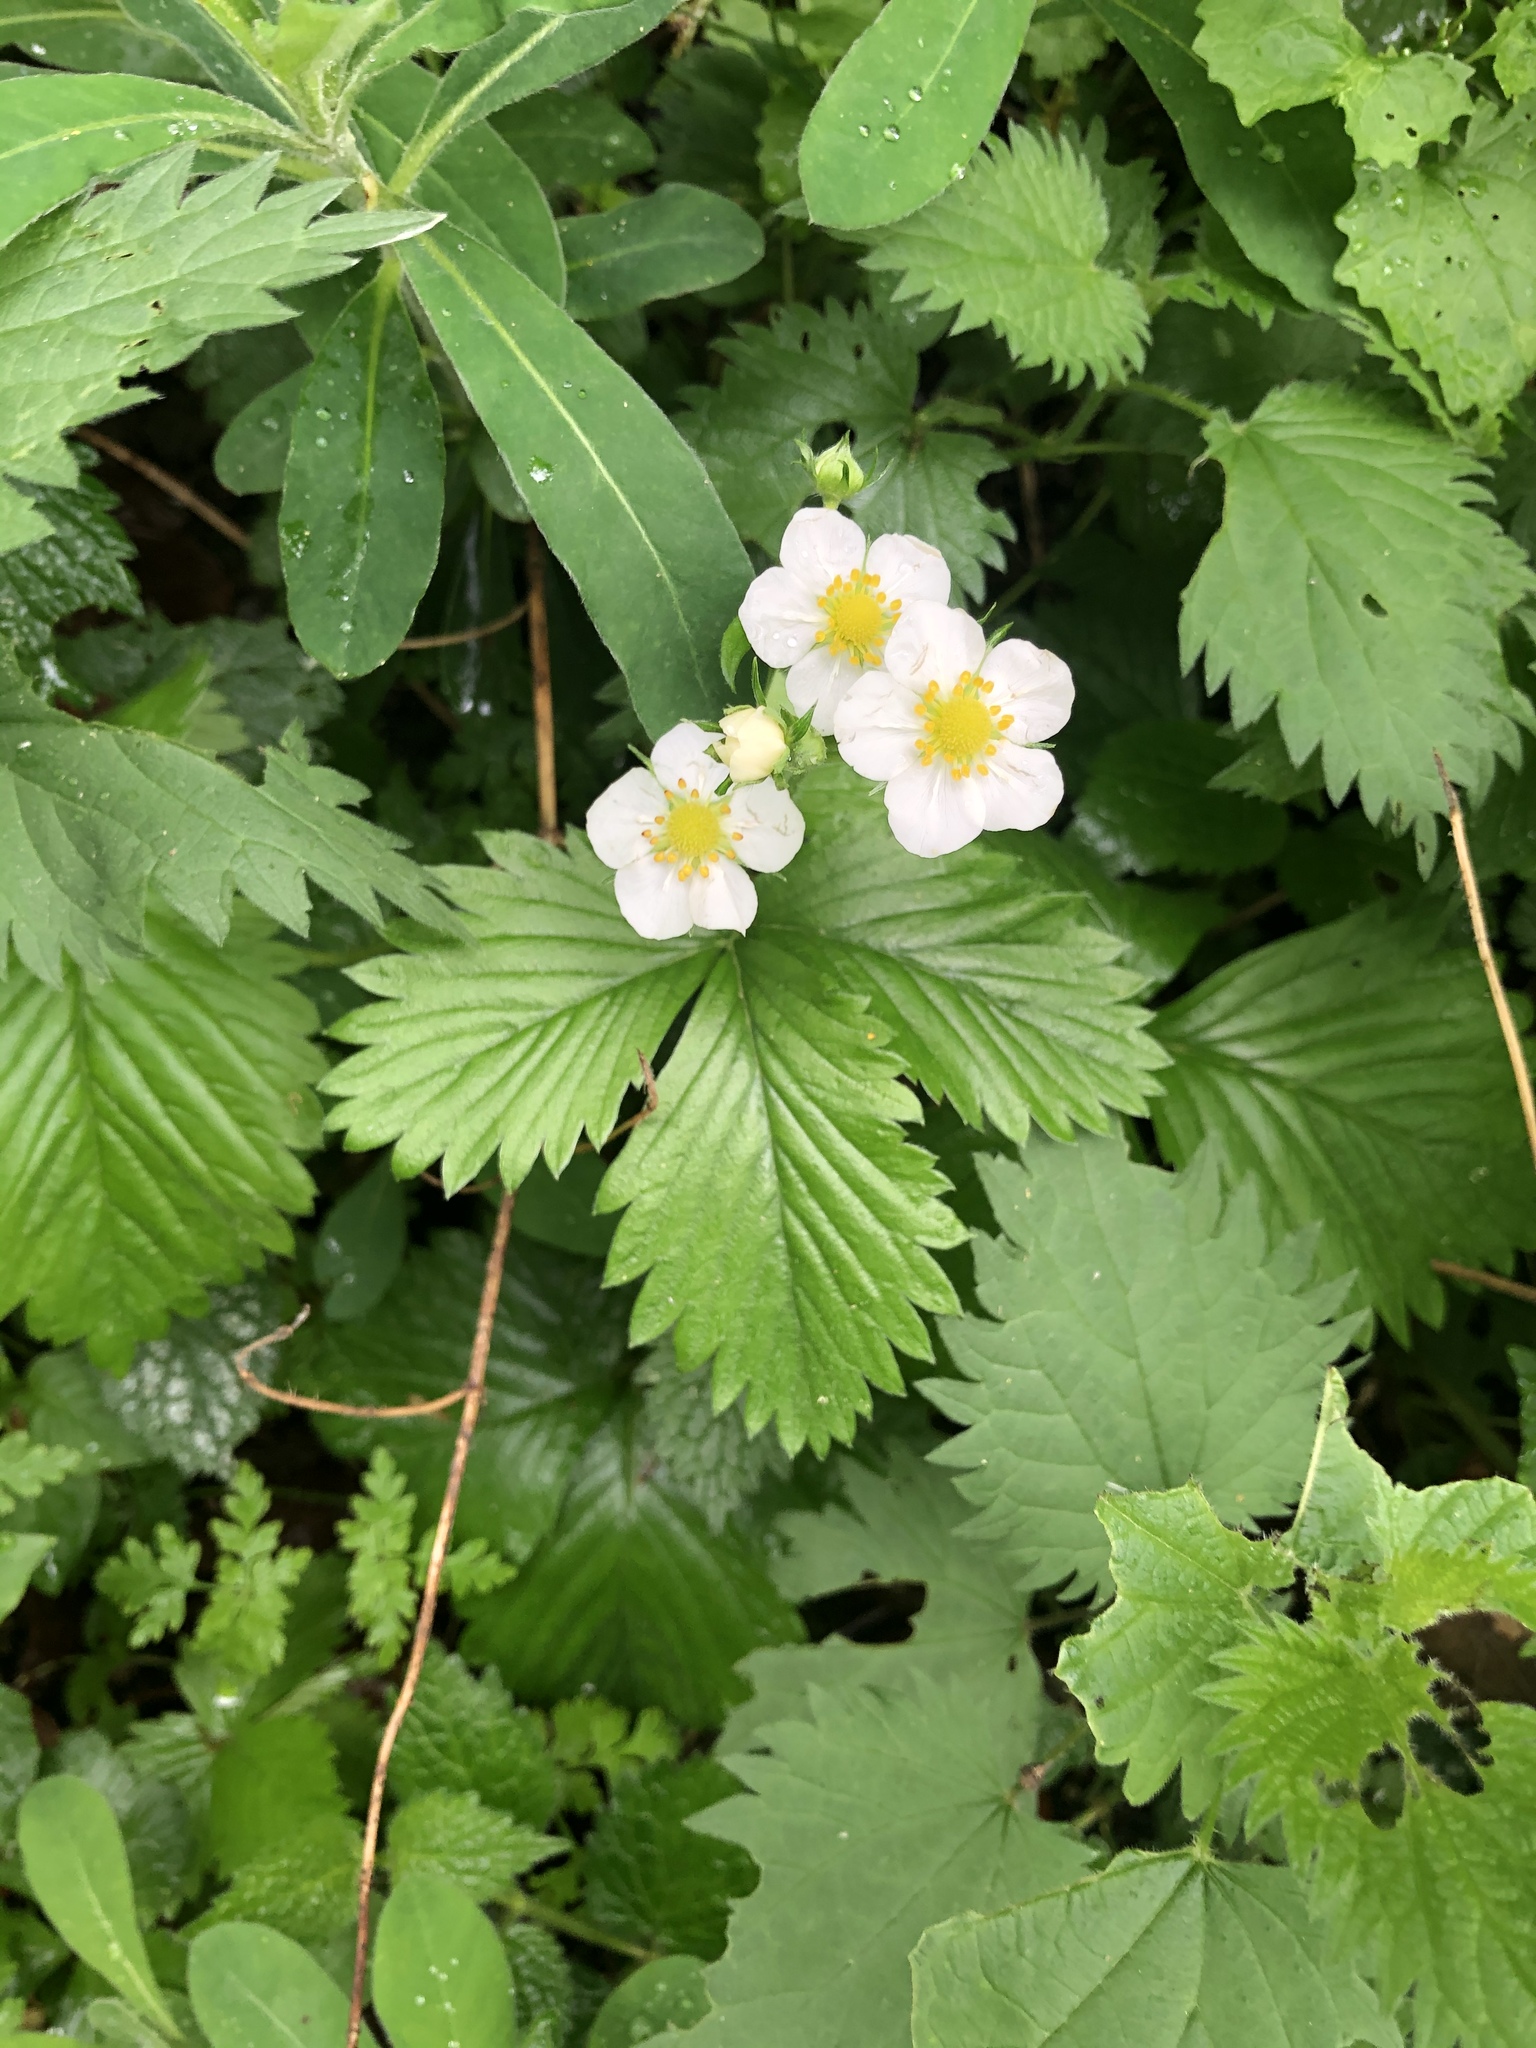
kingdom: Plantae
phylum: Tracheophyta
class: Magnoliopsida
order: Rosales
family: Rosaceae
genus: Fragaria
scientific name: Fragaria vesca
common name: Wild strawberry
